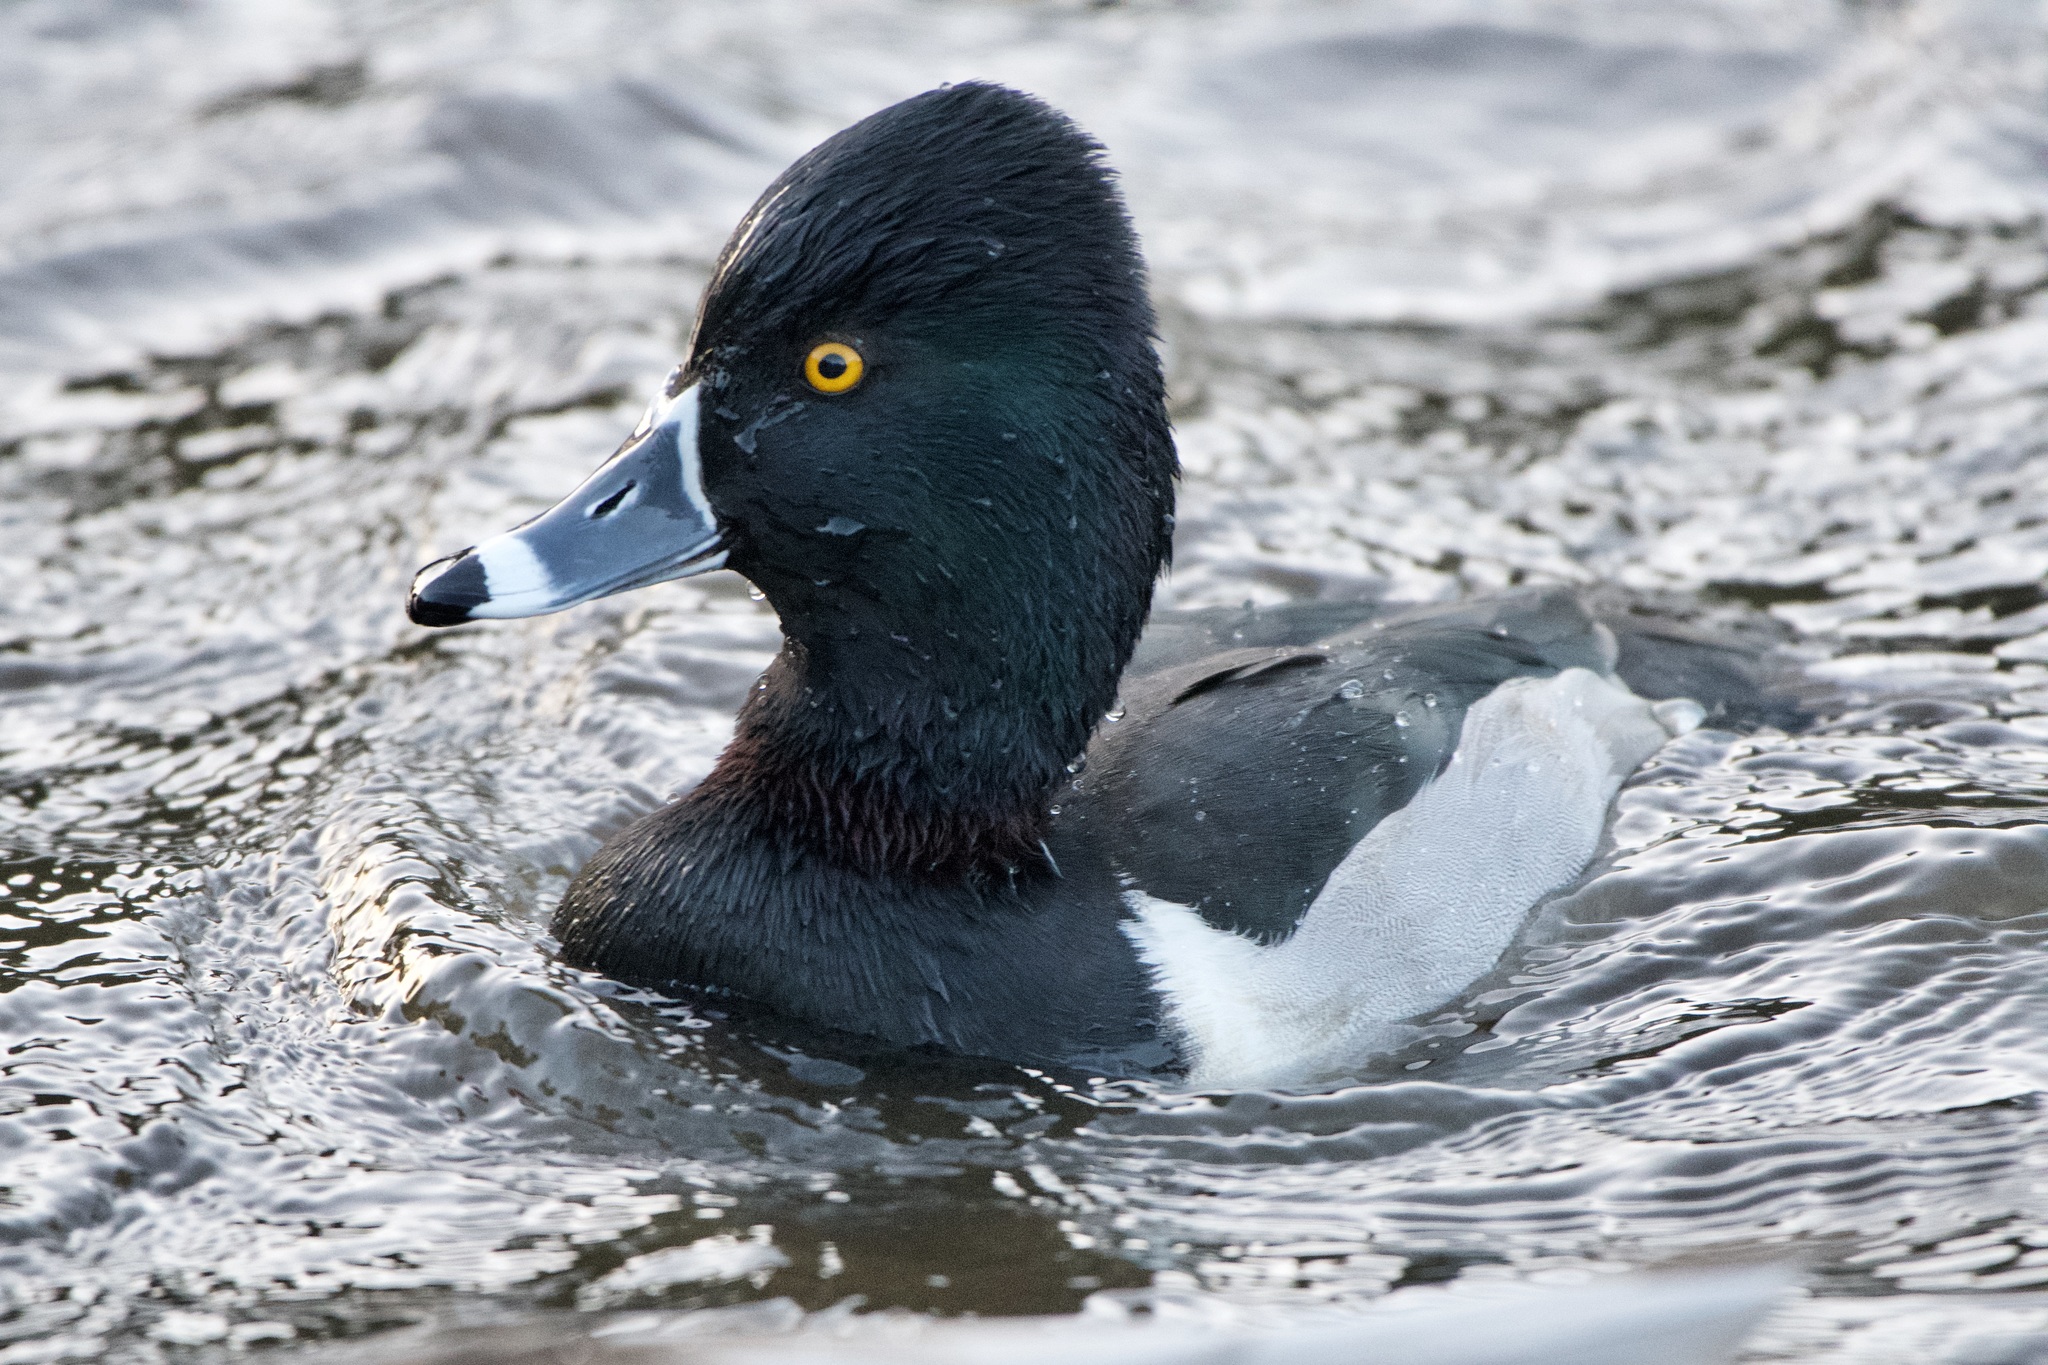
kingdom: Animalia
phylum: Chordata
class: Aves
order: Anseriformes
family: Anatidae
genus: Aythya
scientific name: Aythya collaris
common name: Ring-necked duck
